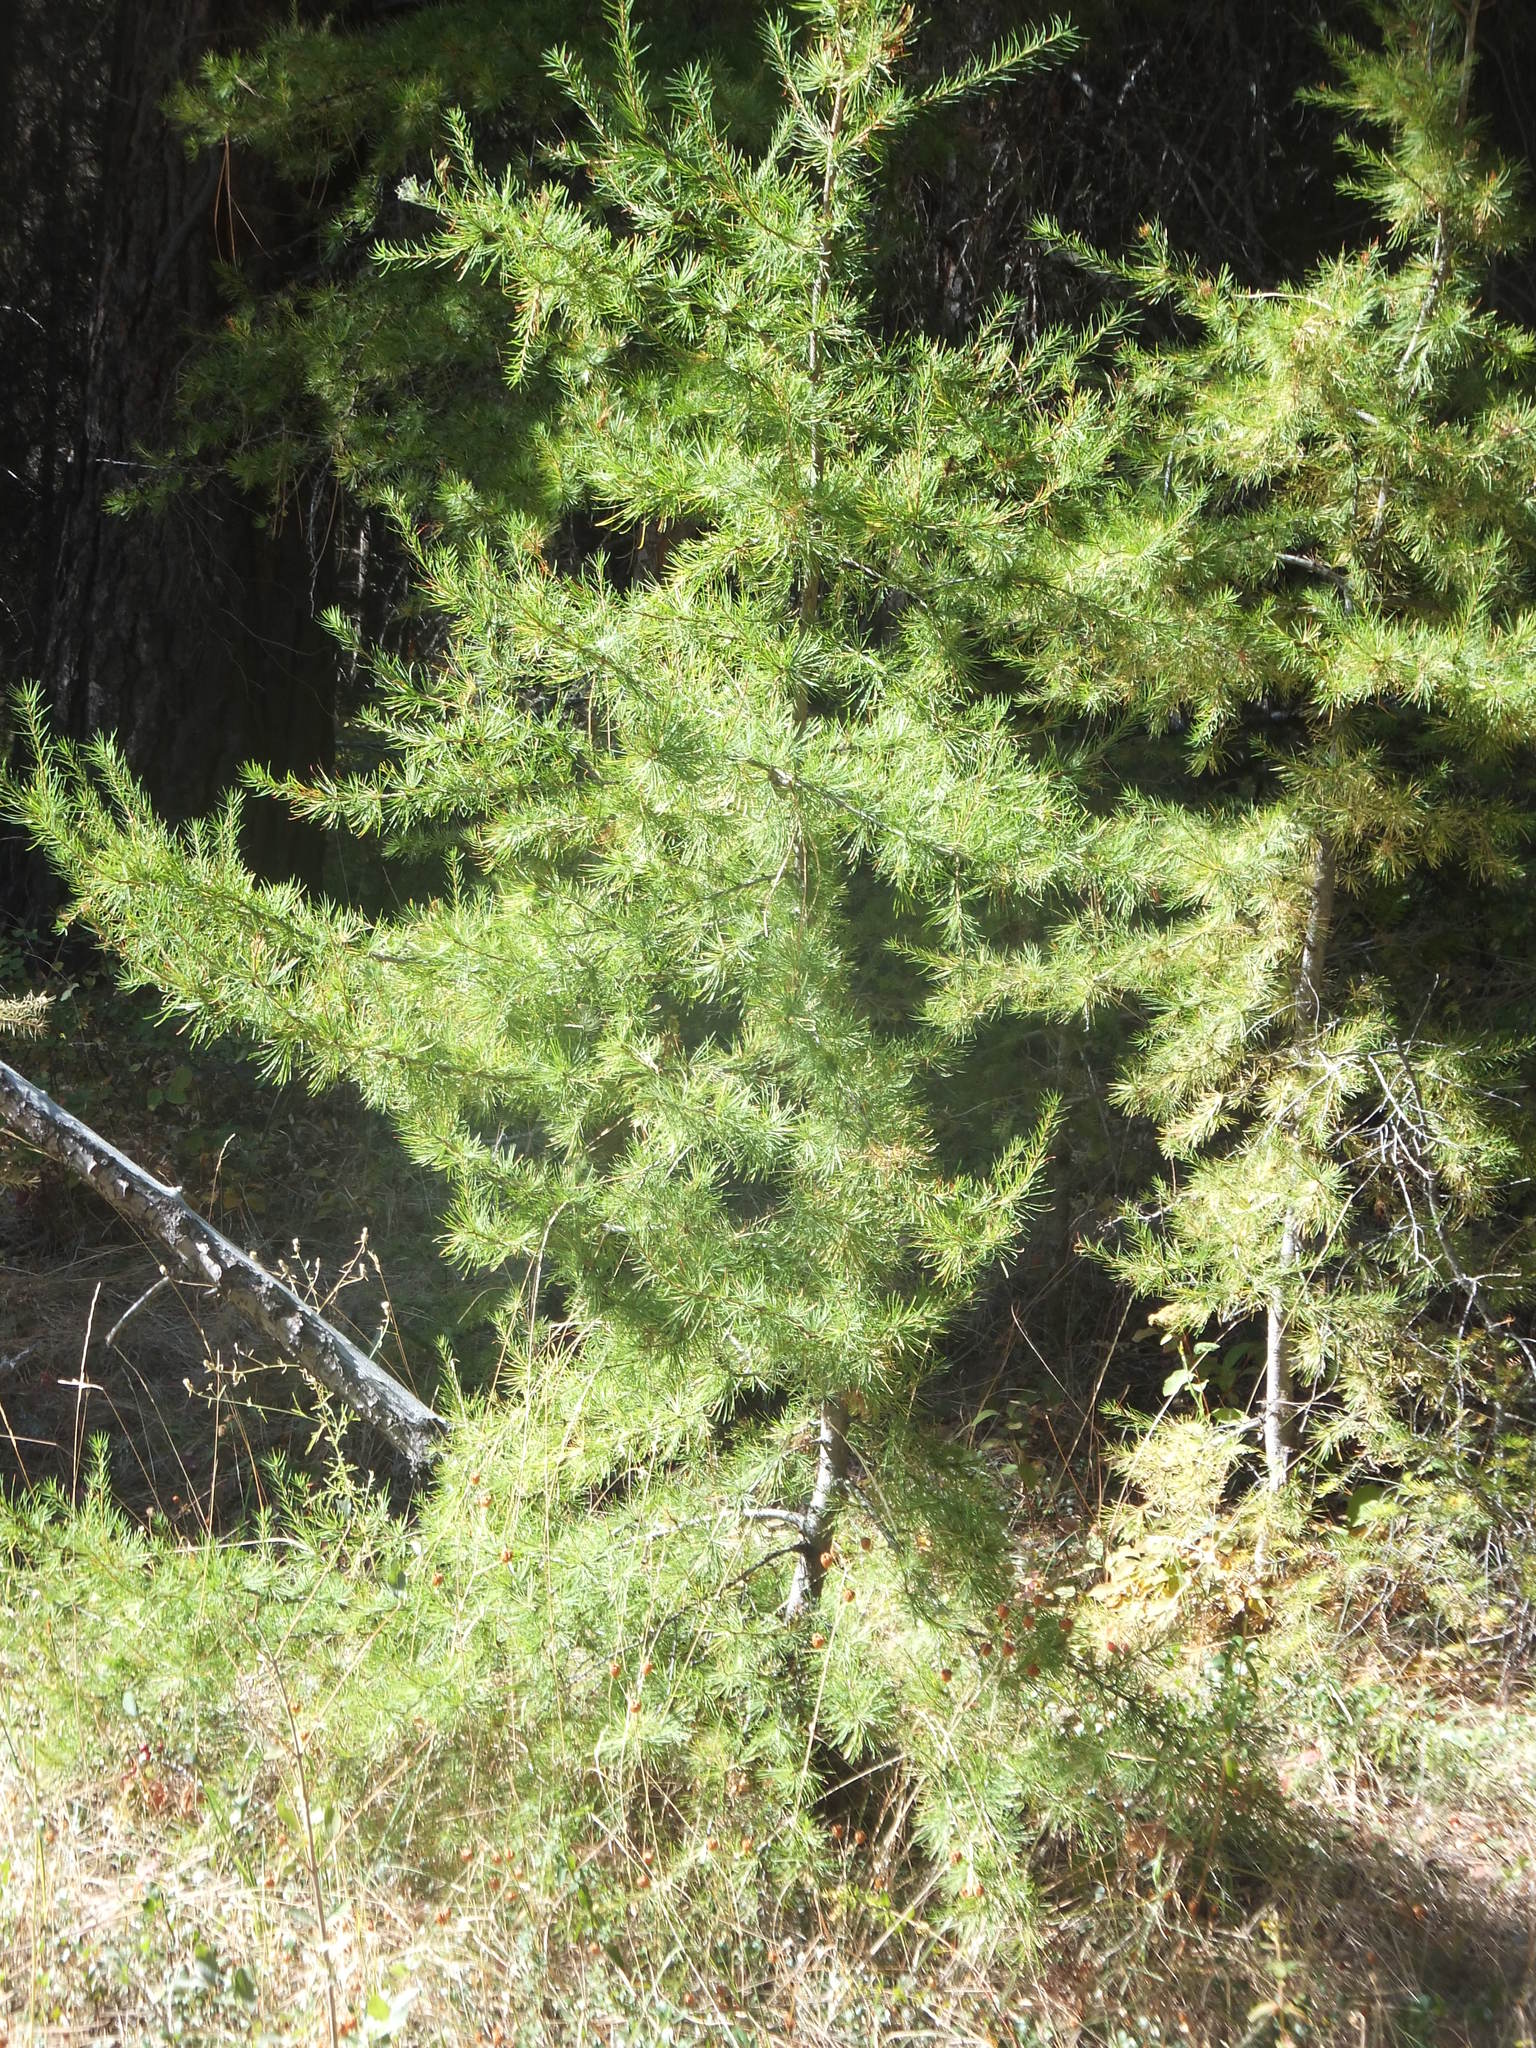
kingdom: Plantae
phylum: Tracheophyta
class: Pinopsida
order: Pinales
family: Pinaceae
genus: Larix
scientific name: Larix occidentalis
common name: Western larch
